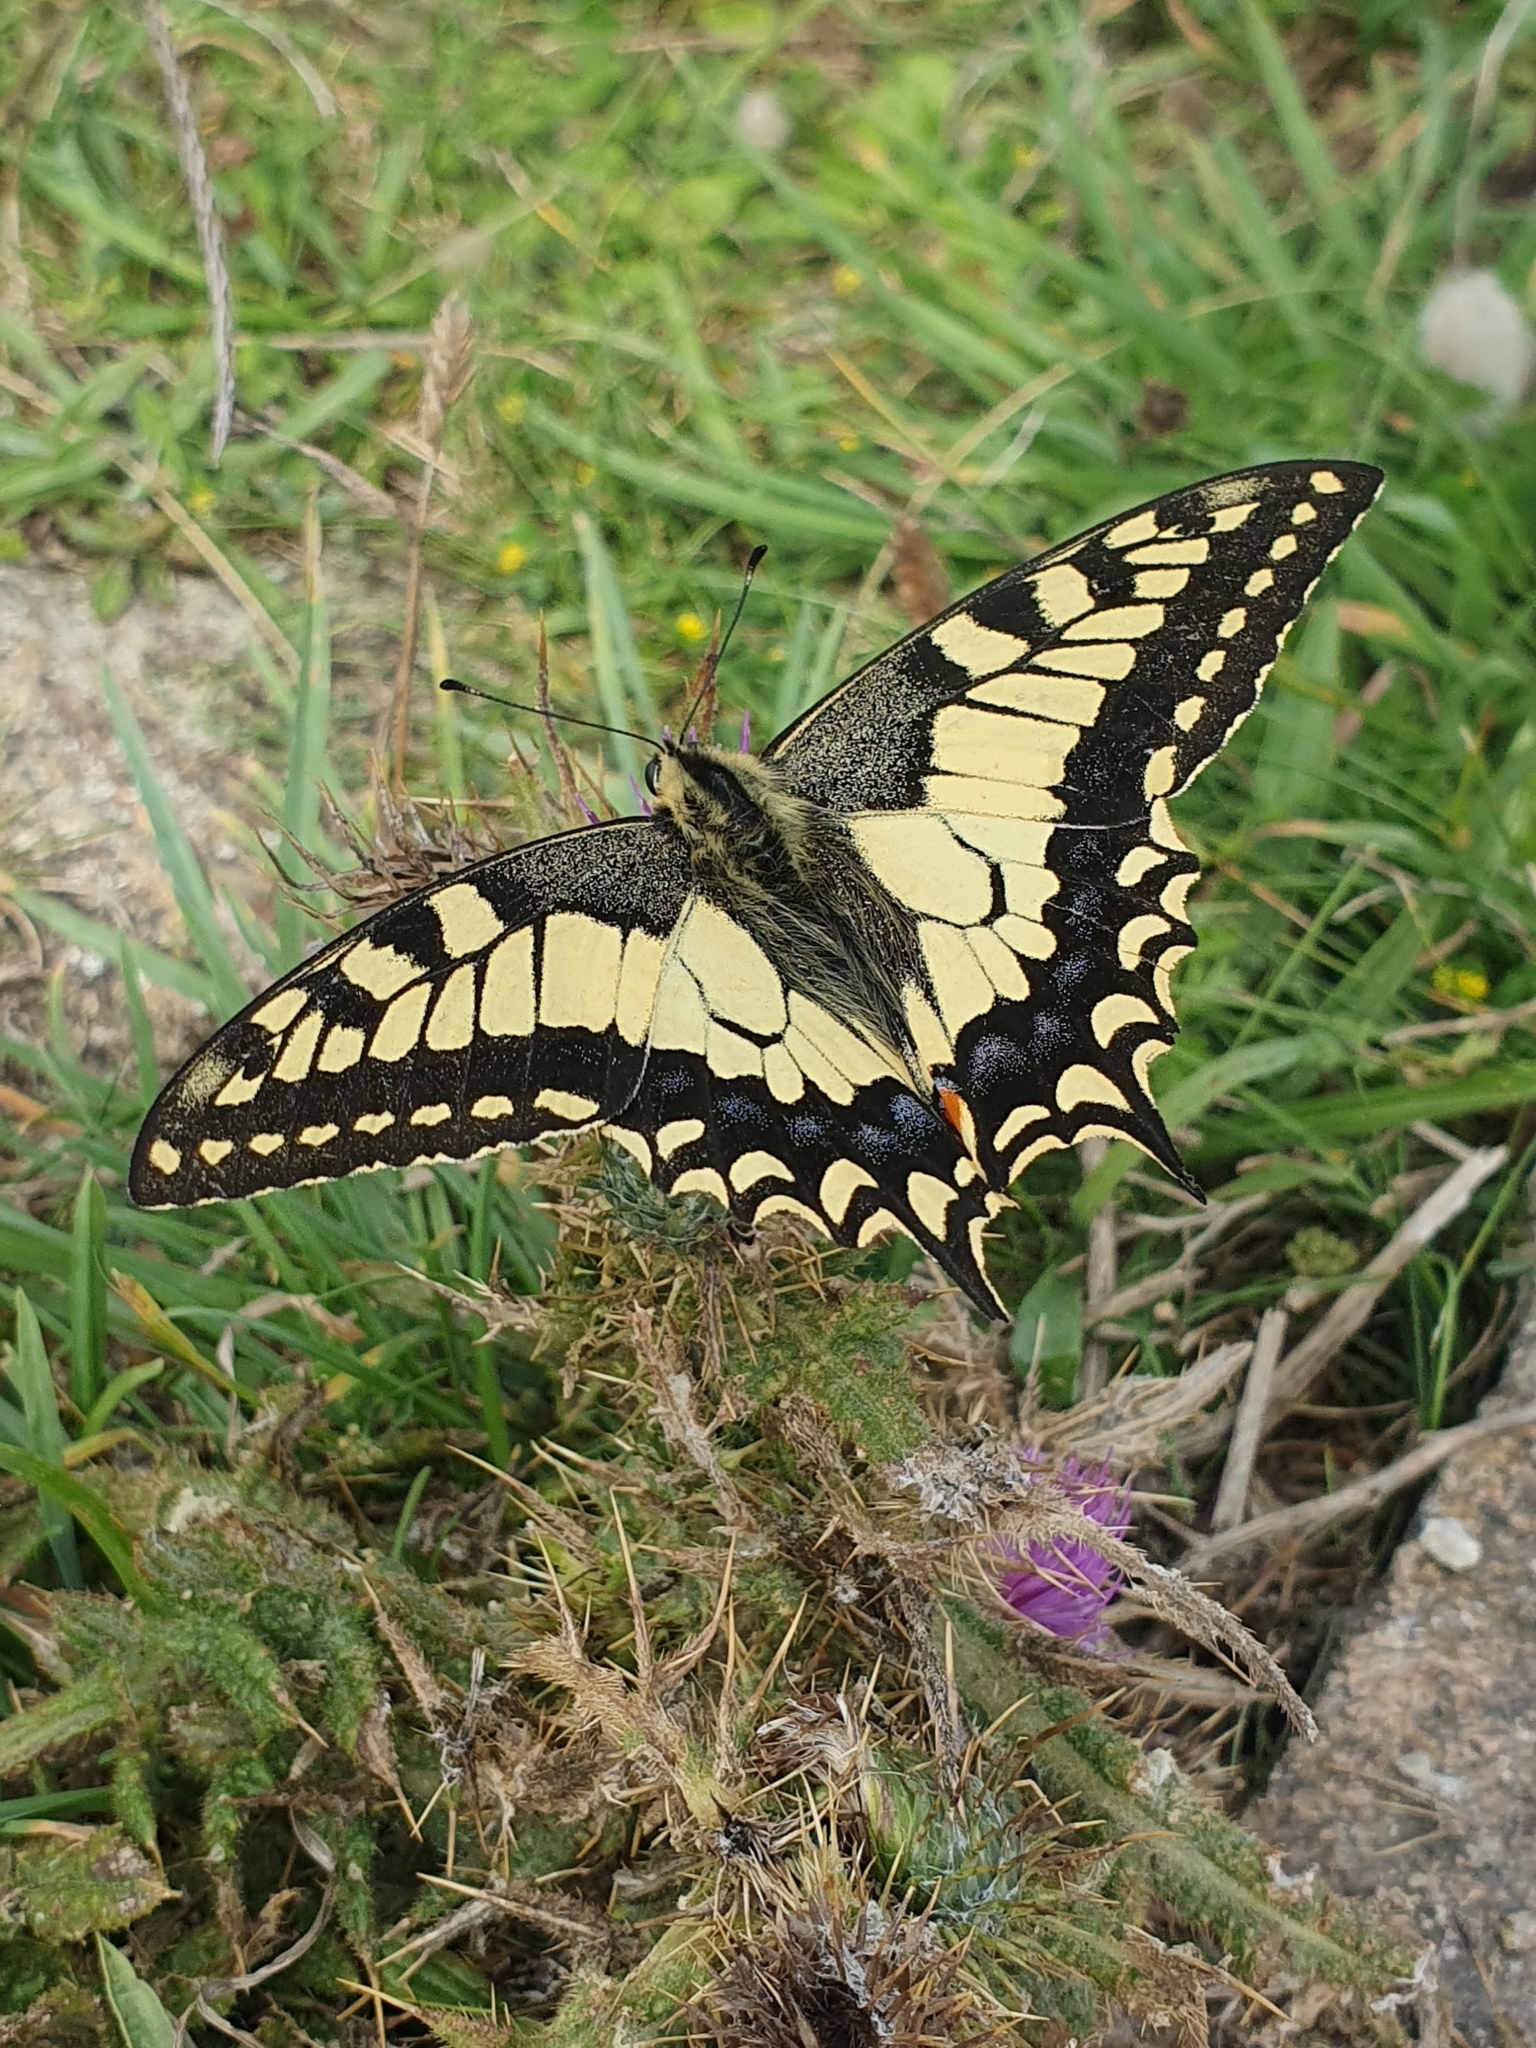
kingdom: Animalia
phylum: Arthropoda
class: Insecta
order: Lepidoptera
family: Papilionidae
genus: Papilio
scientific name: Papilio machaon
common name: Swallowtail
